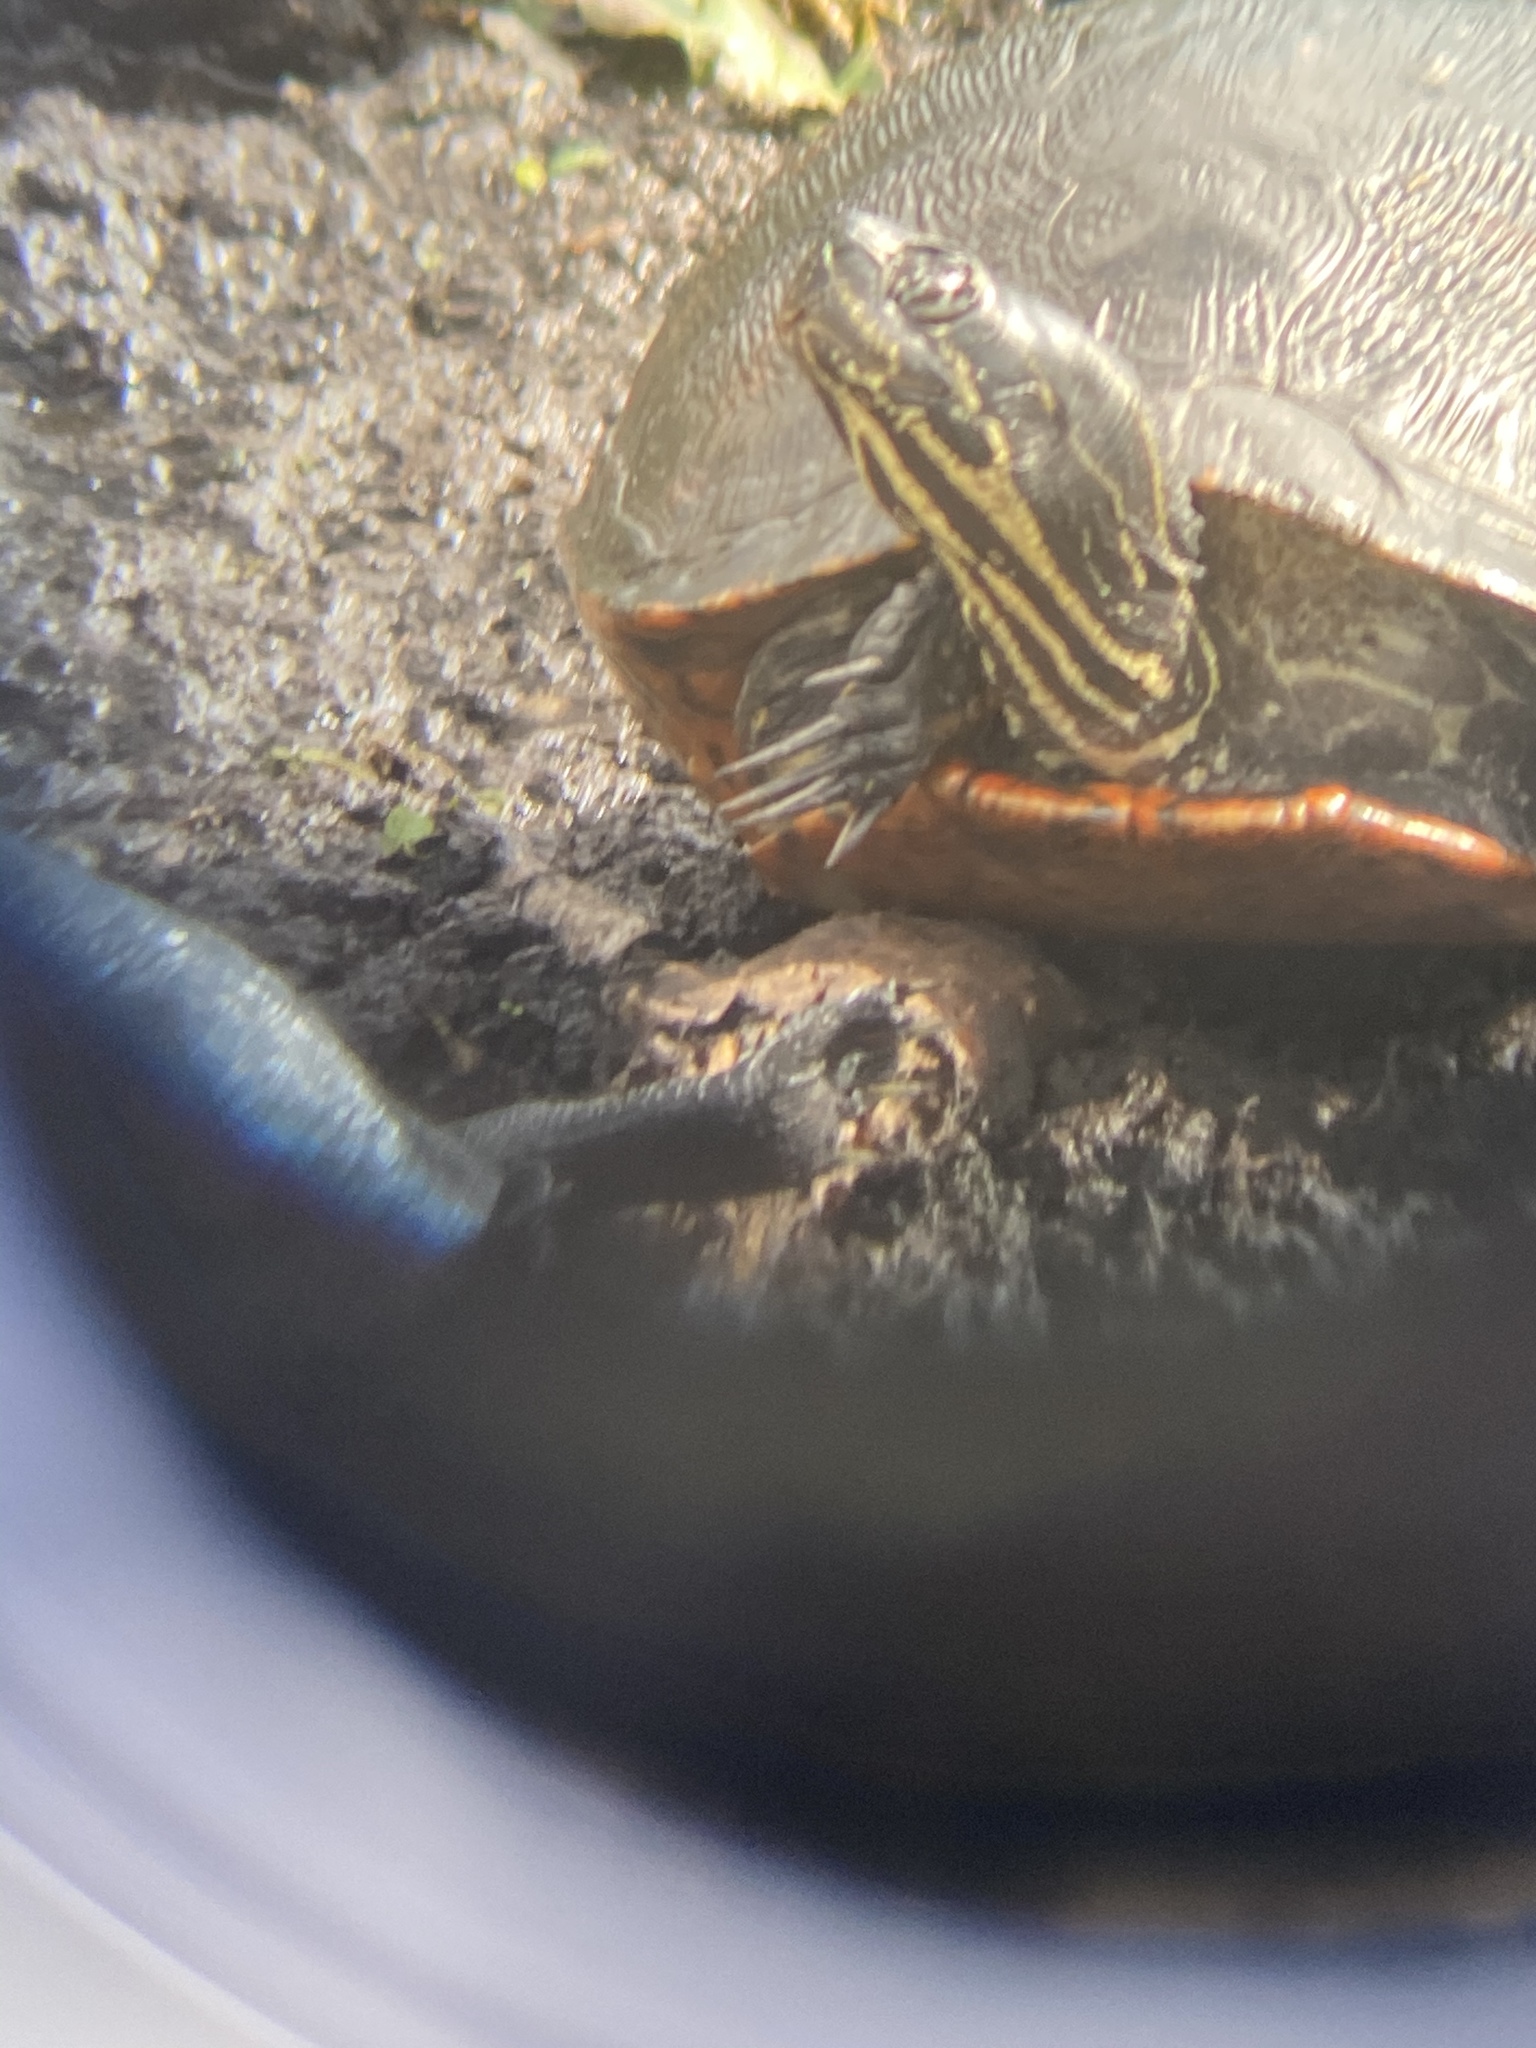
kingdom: Animalia
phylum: Chordata
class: Testudines
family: Emydidae
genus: Pseudemys
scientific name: Pseudemys nelsoni
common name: Florida red-bellied turtle
